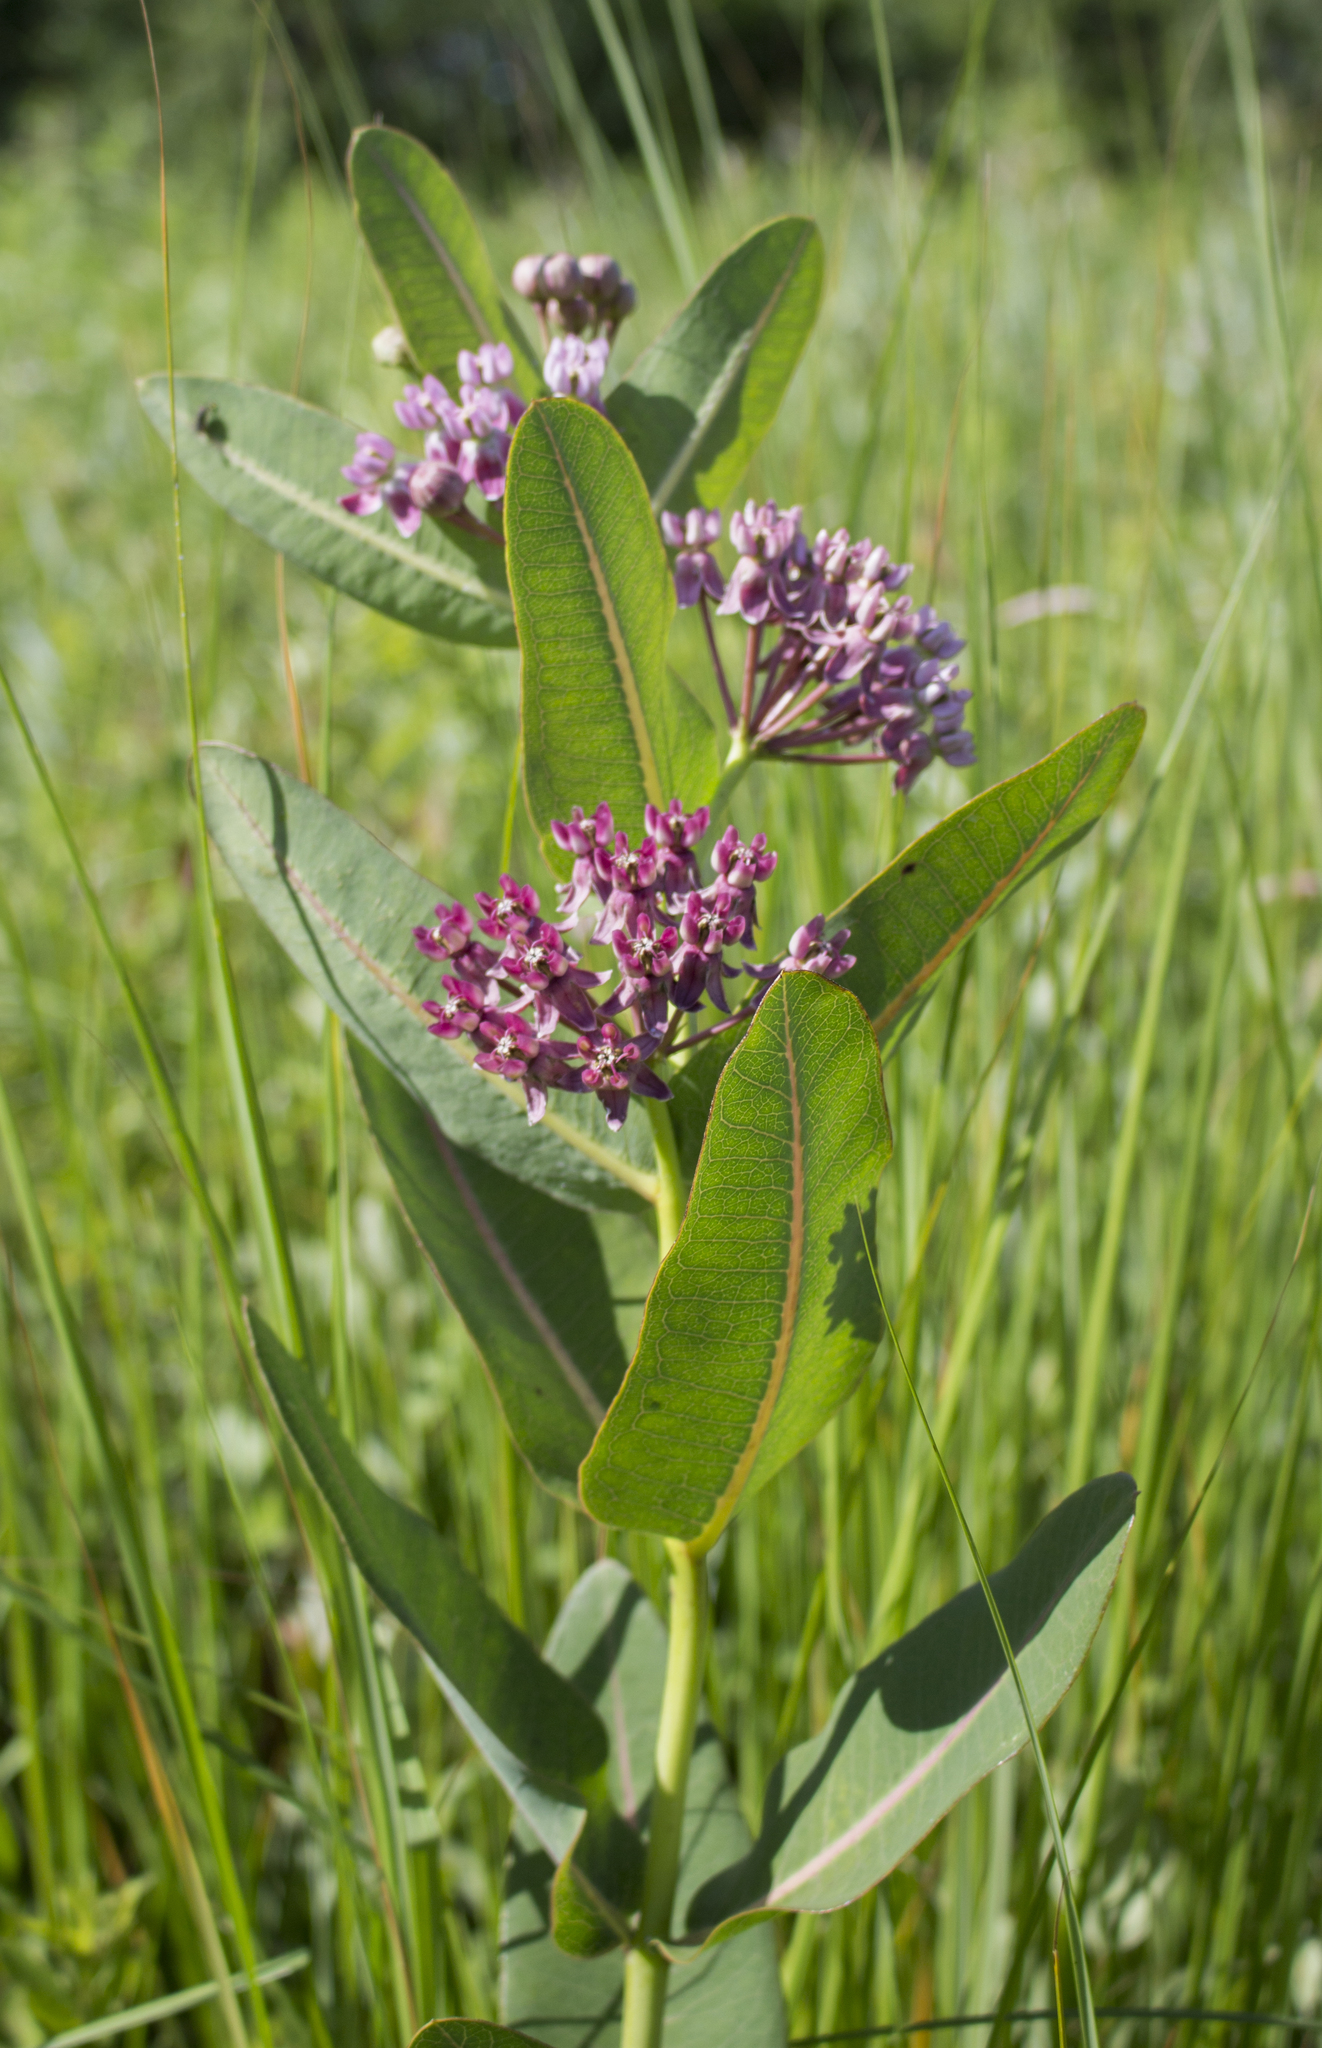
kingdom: Plantae
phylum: Tracheophyta
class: Magnoliopsida
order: Gentianales
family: Apocynaceae
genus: Asclepias
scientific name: Asclepias sullivantii
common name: Prairie milkweed
